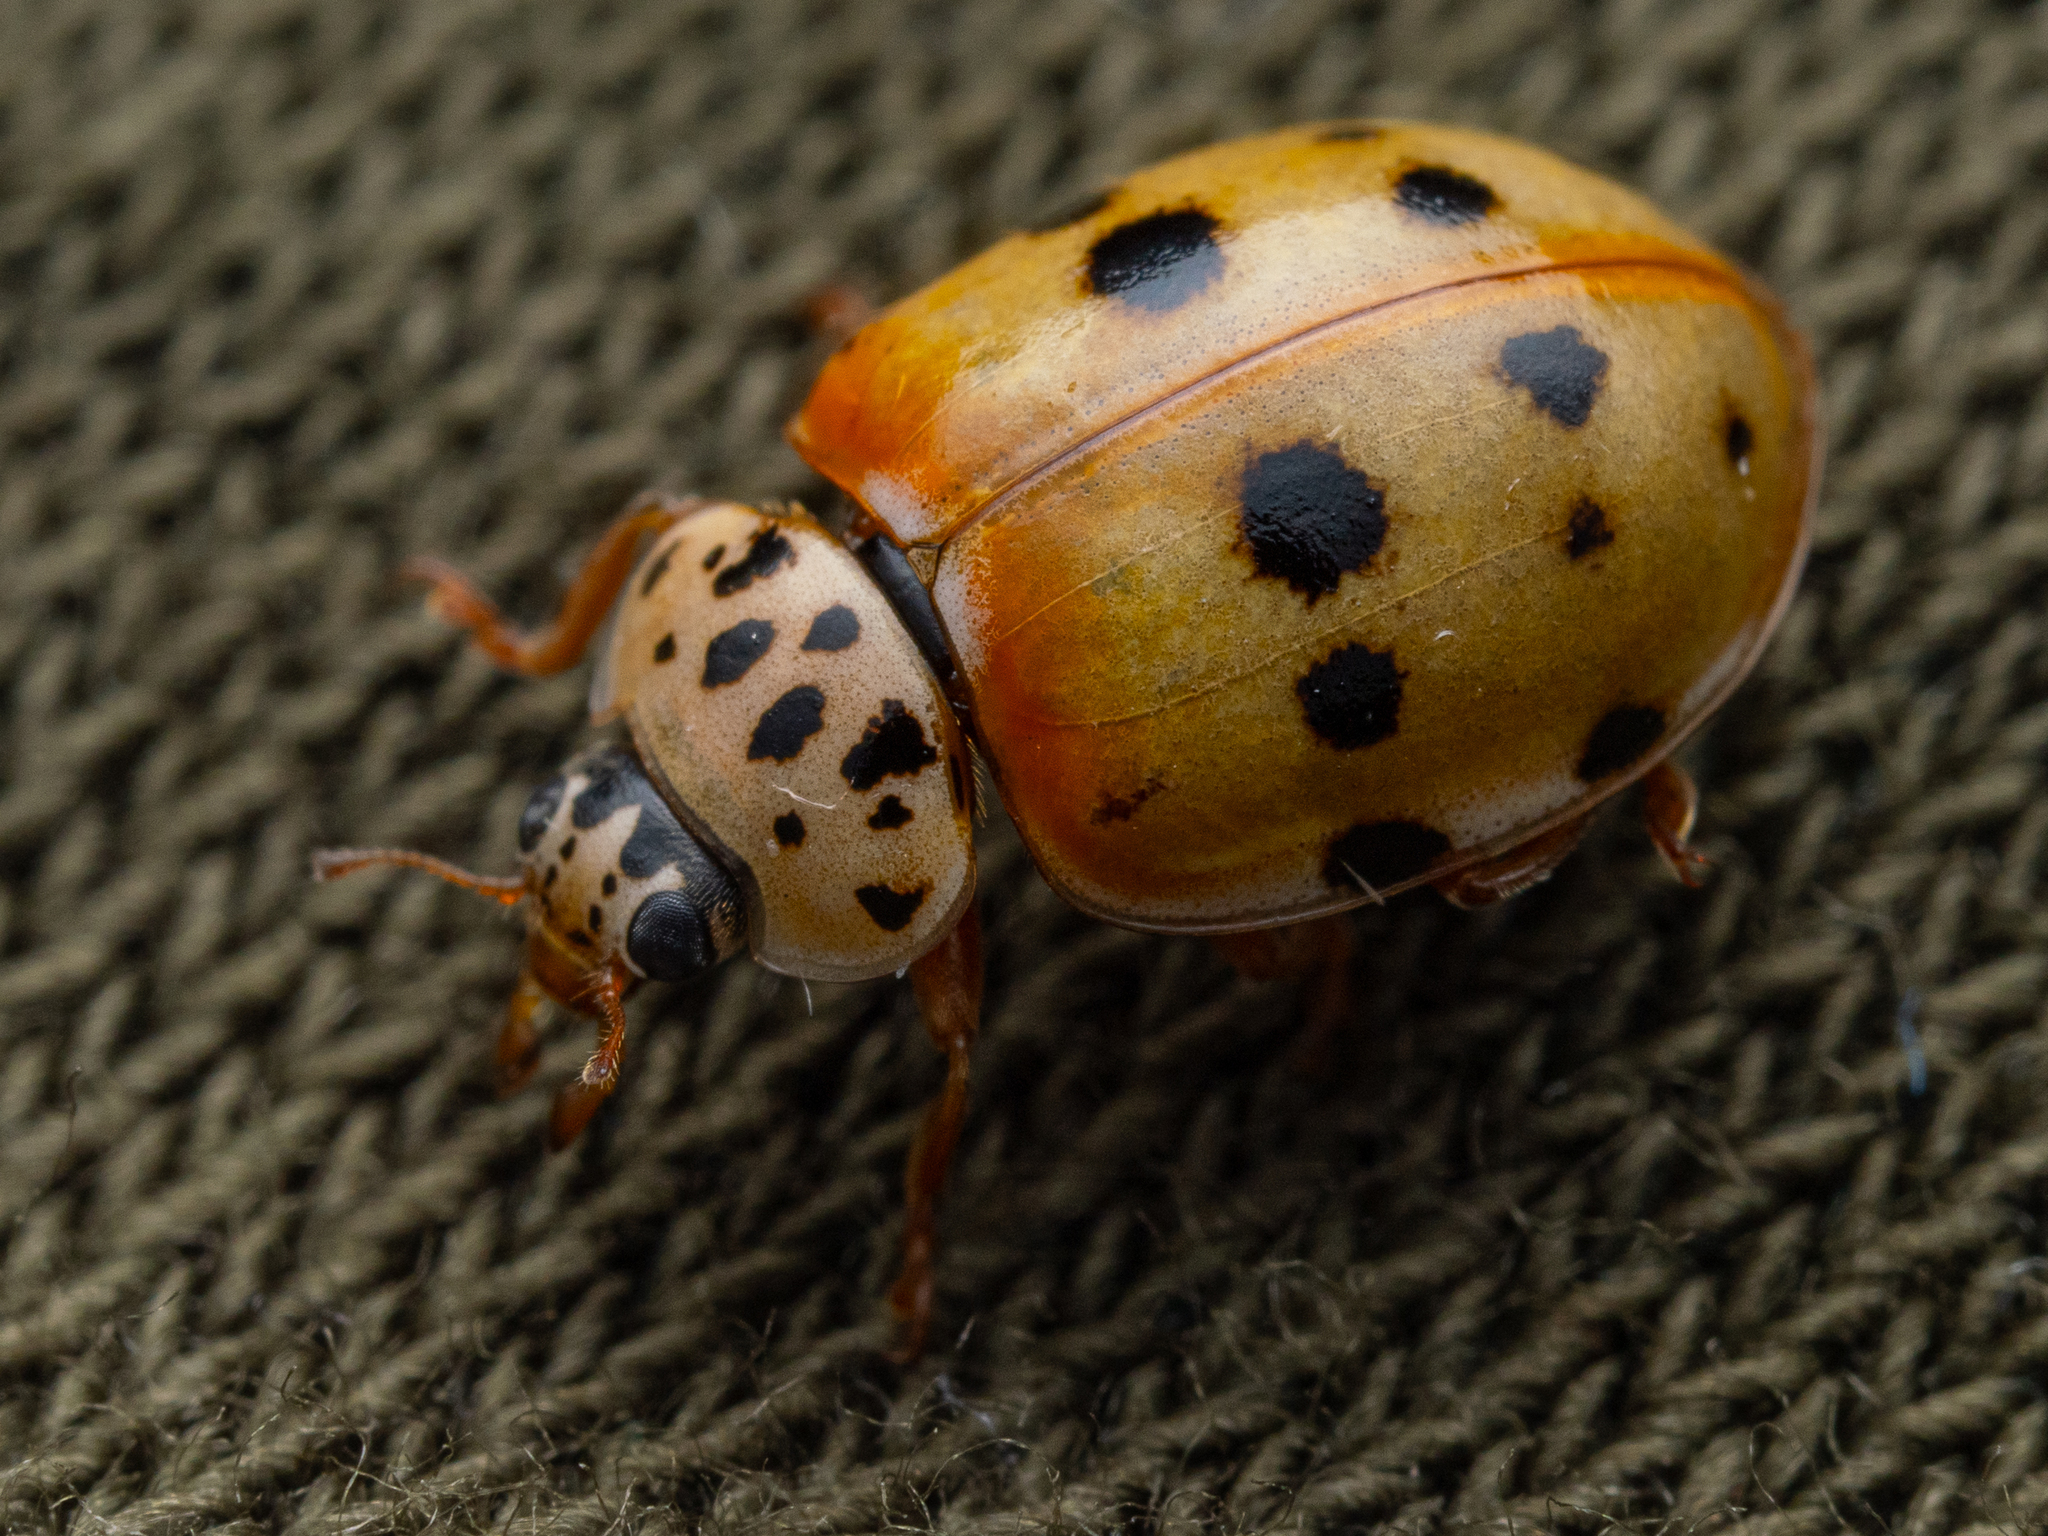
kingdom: Animalia
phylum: Arthropoda
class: Insecta
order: Coleoptera
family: Coccinellidae
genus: Harmonia
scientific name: Harmonia quadripunctata
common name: Cream-streaked ladybird
